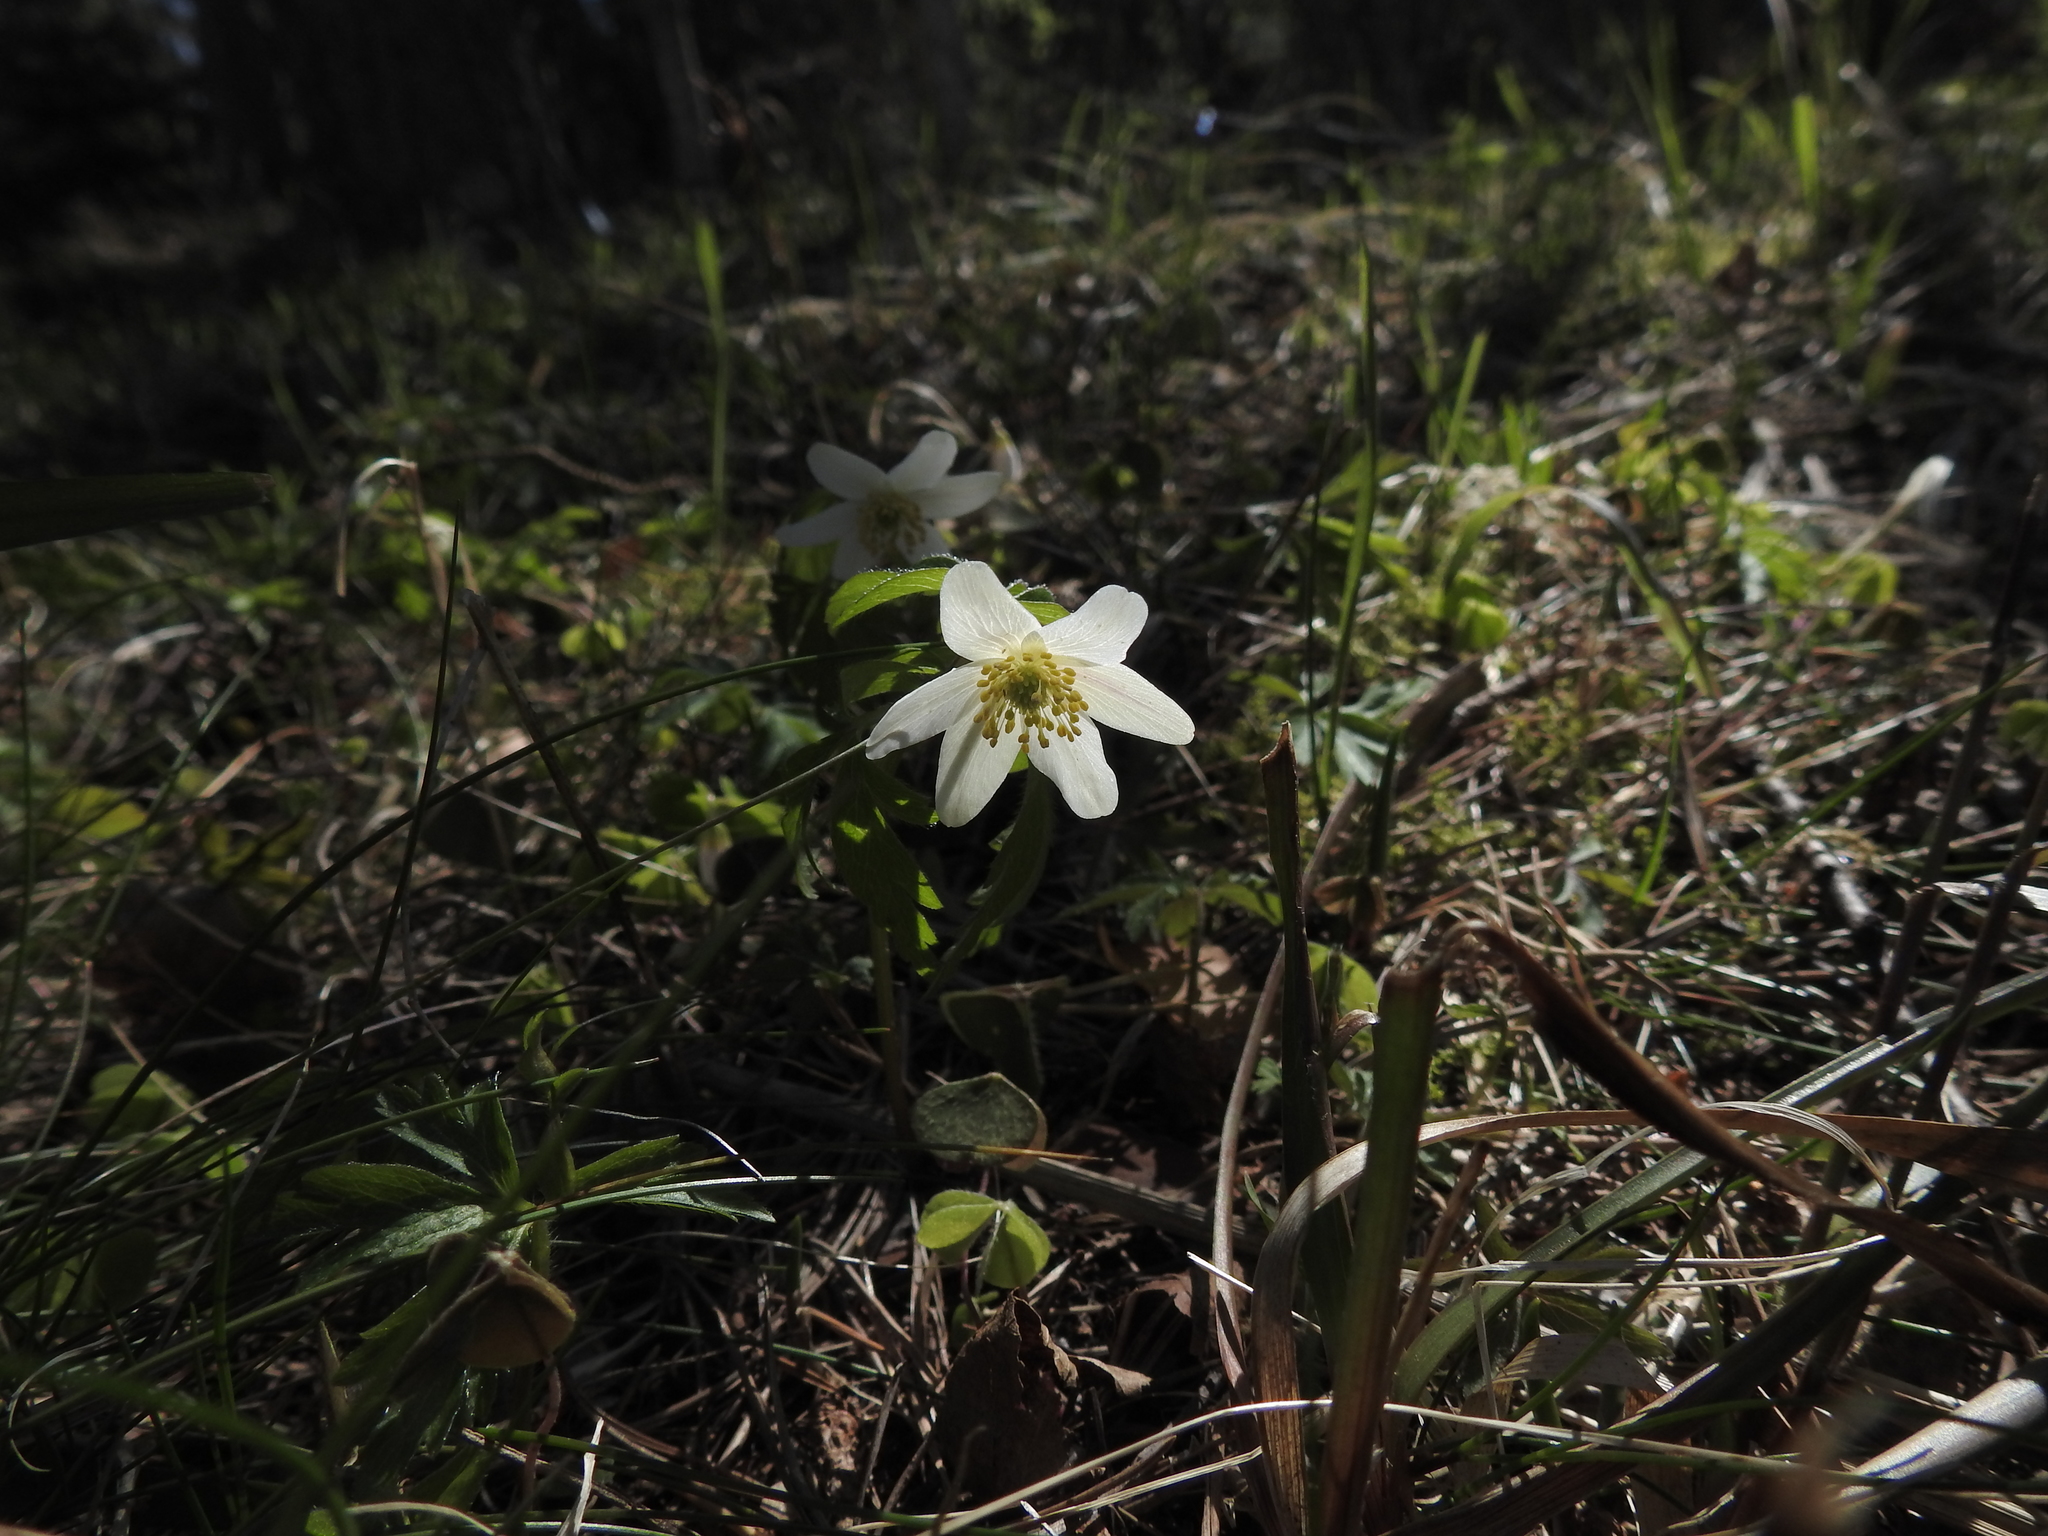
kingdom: Plantae
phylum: Tracheophyta
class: Magnoliopsida
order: Ranunculales
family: Ranunculaceae
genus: Anemone
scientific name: Anemone nemorosa
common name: Wood anemone
